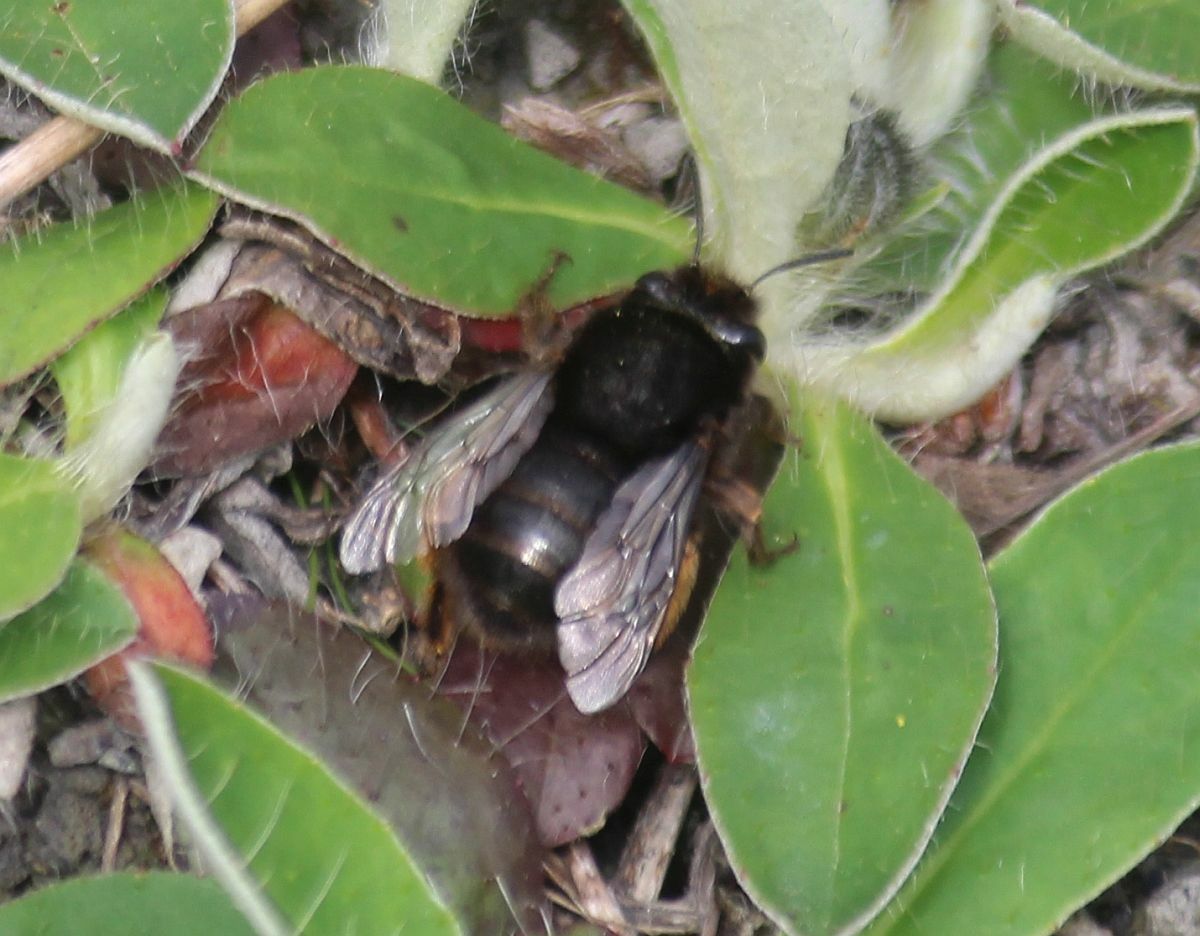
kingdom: Animalia
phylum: Arthropoda
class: Insecta
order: Hymenoptera
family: Apidae
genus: Anthophora
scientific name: Anthophora plumipes
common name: Hairy-footed flower bee
